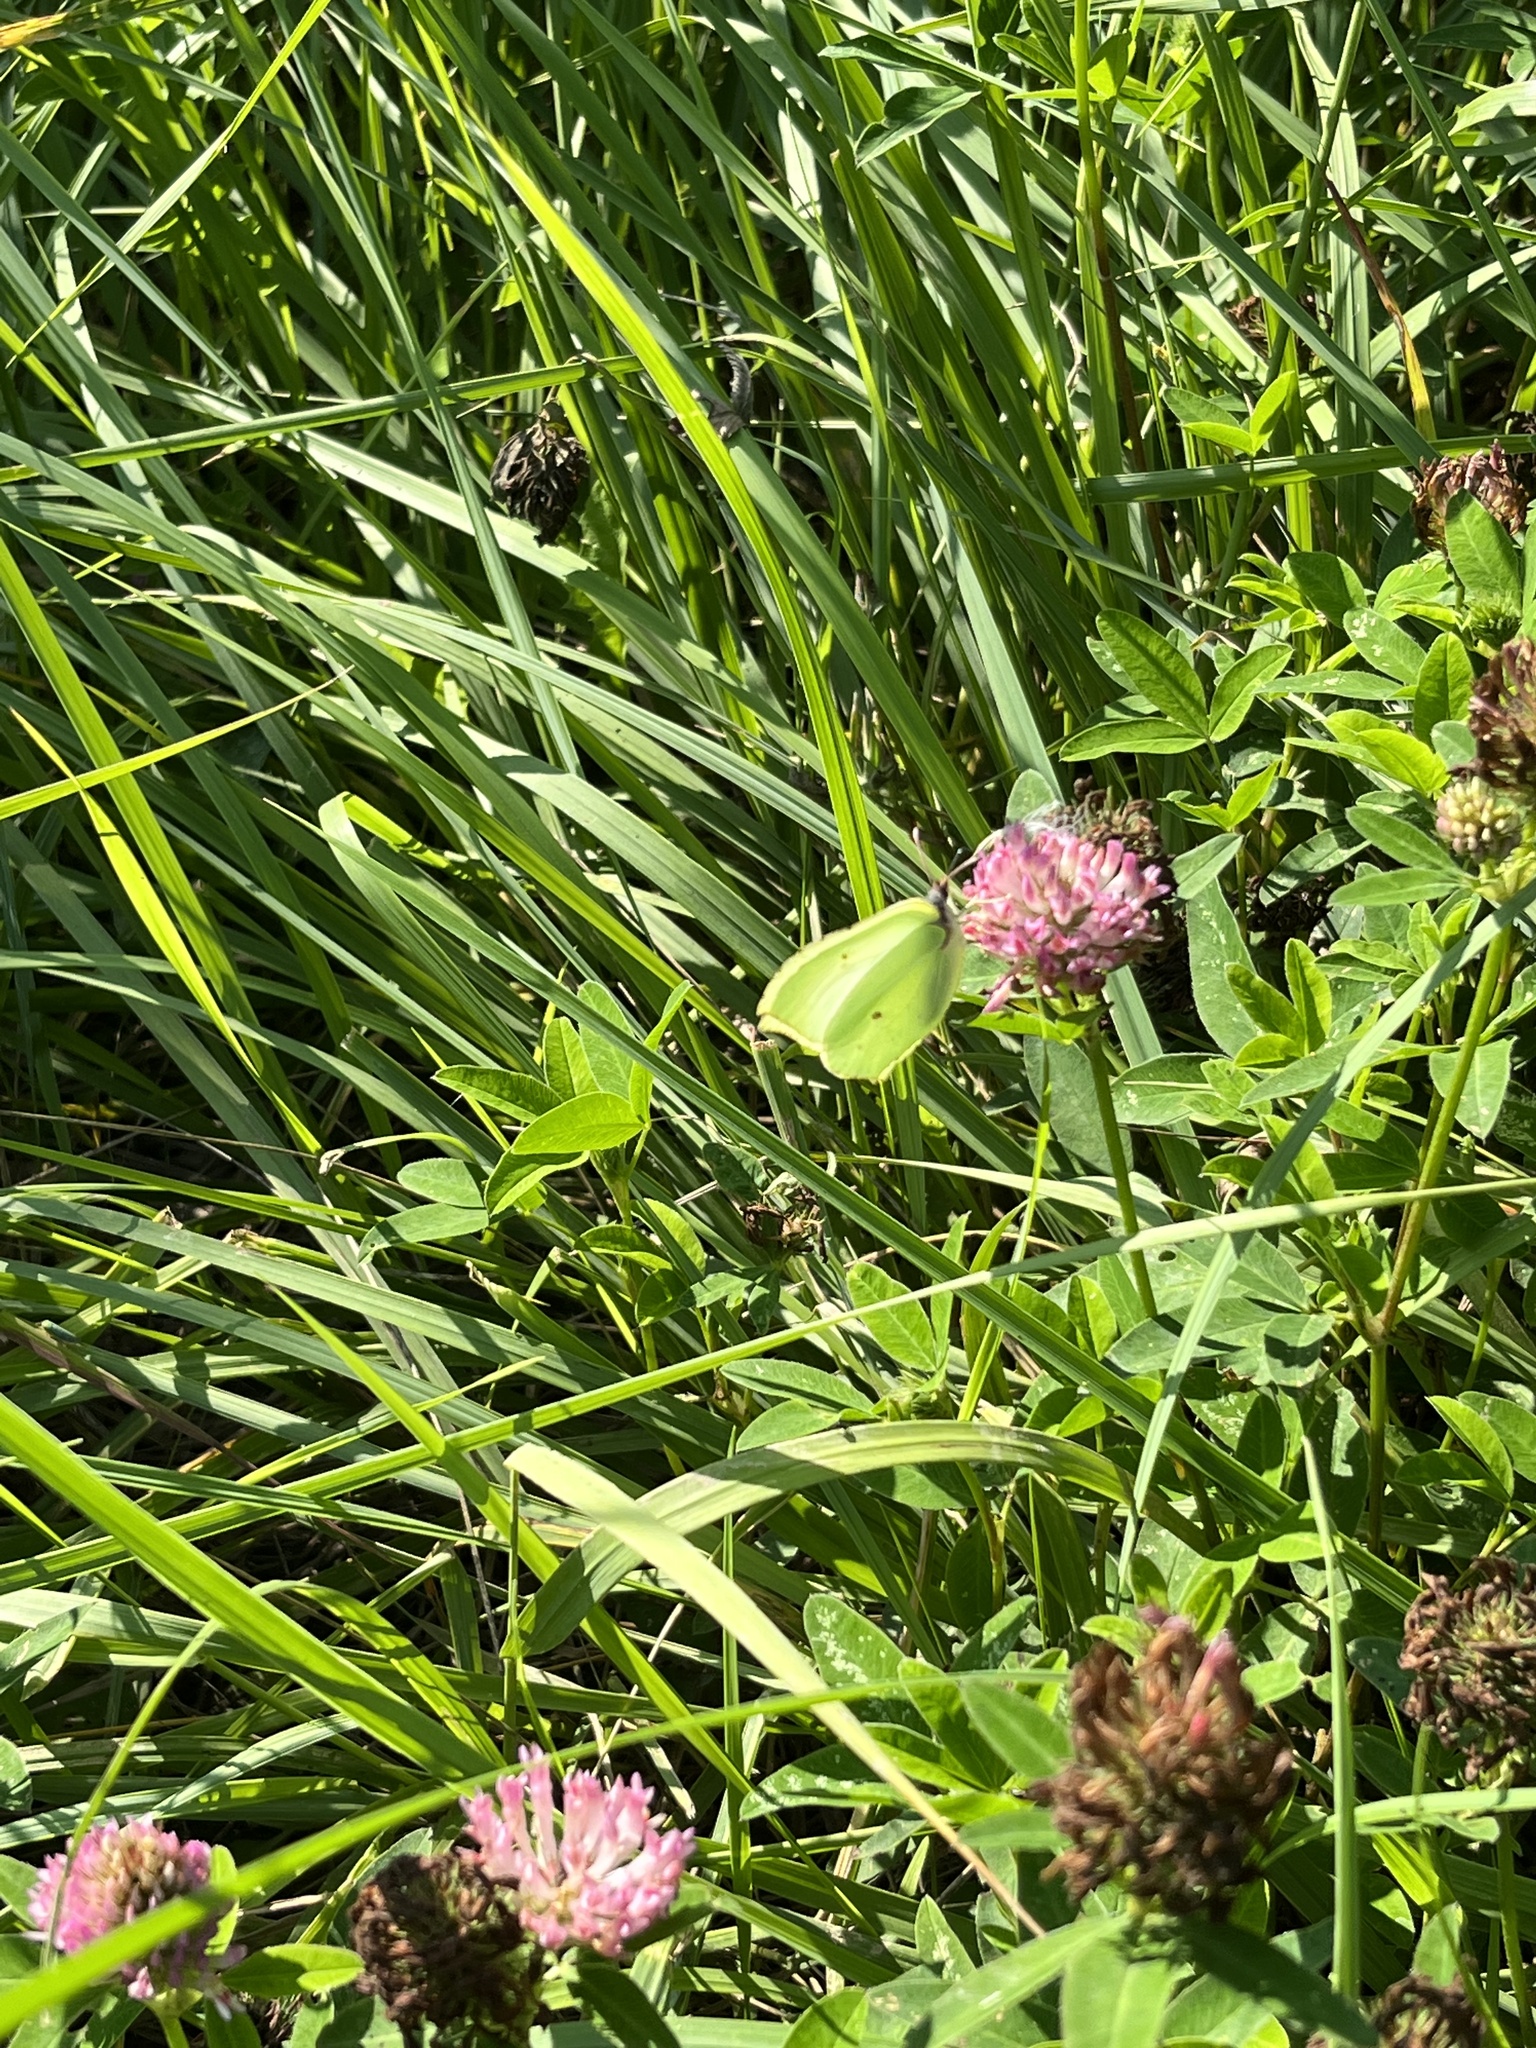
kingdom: Animalia
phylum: Arthropoda
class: Insecta
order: Lepidoptera
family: Pieridae
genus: Gonepteryx
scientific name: Gonepteryx rhamni
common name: Brimstone
